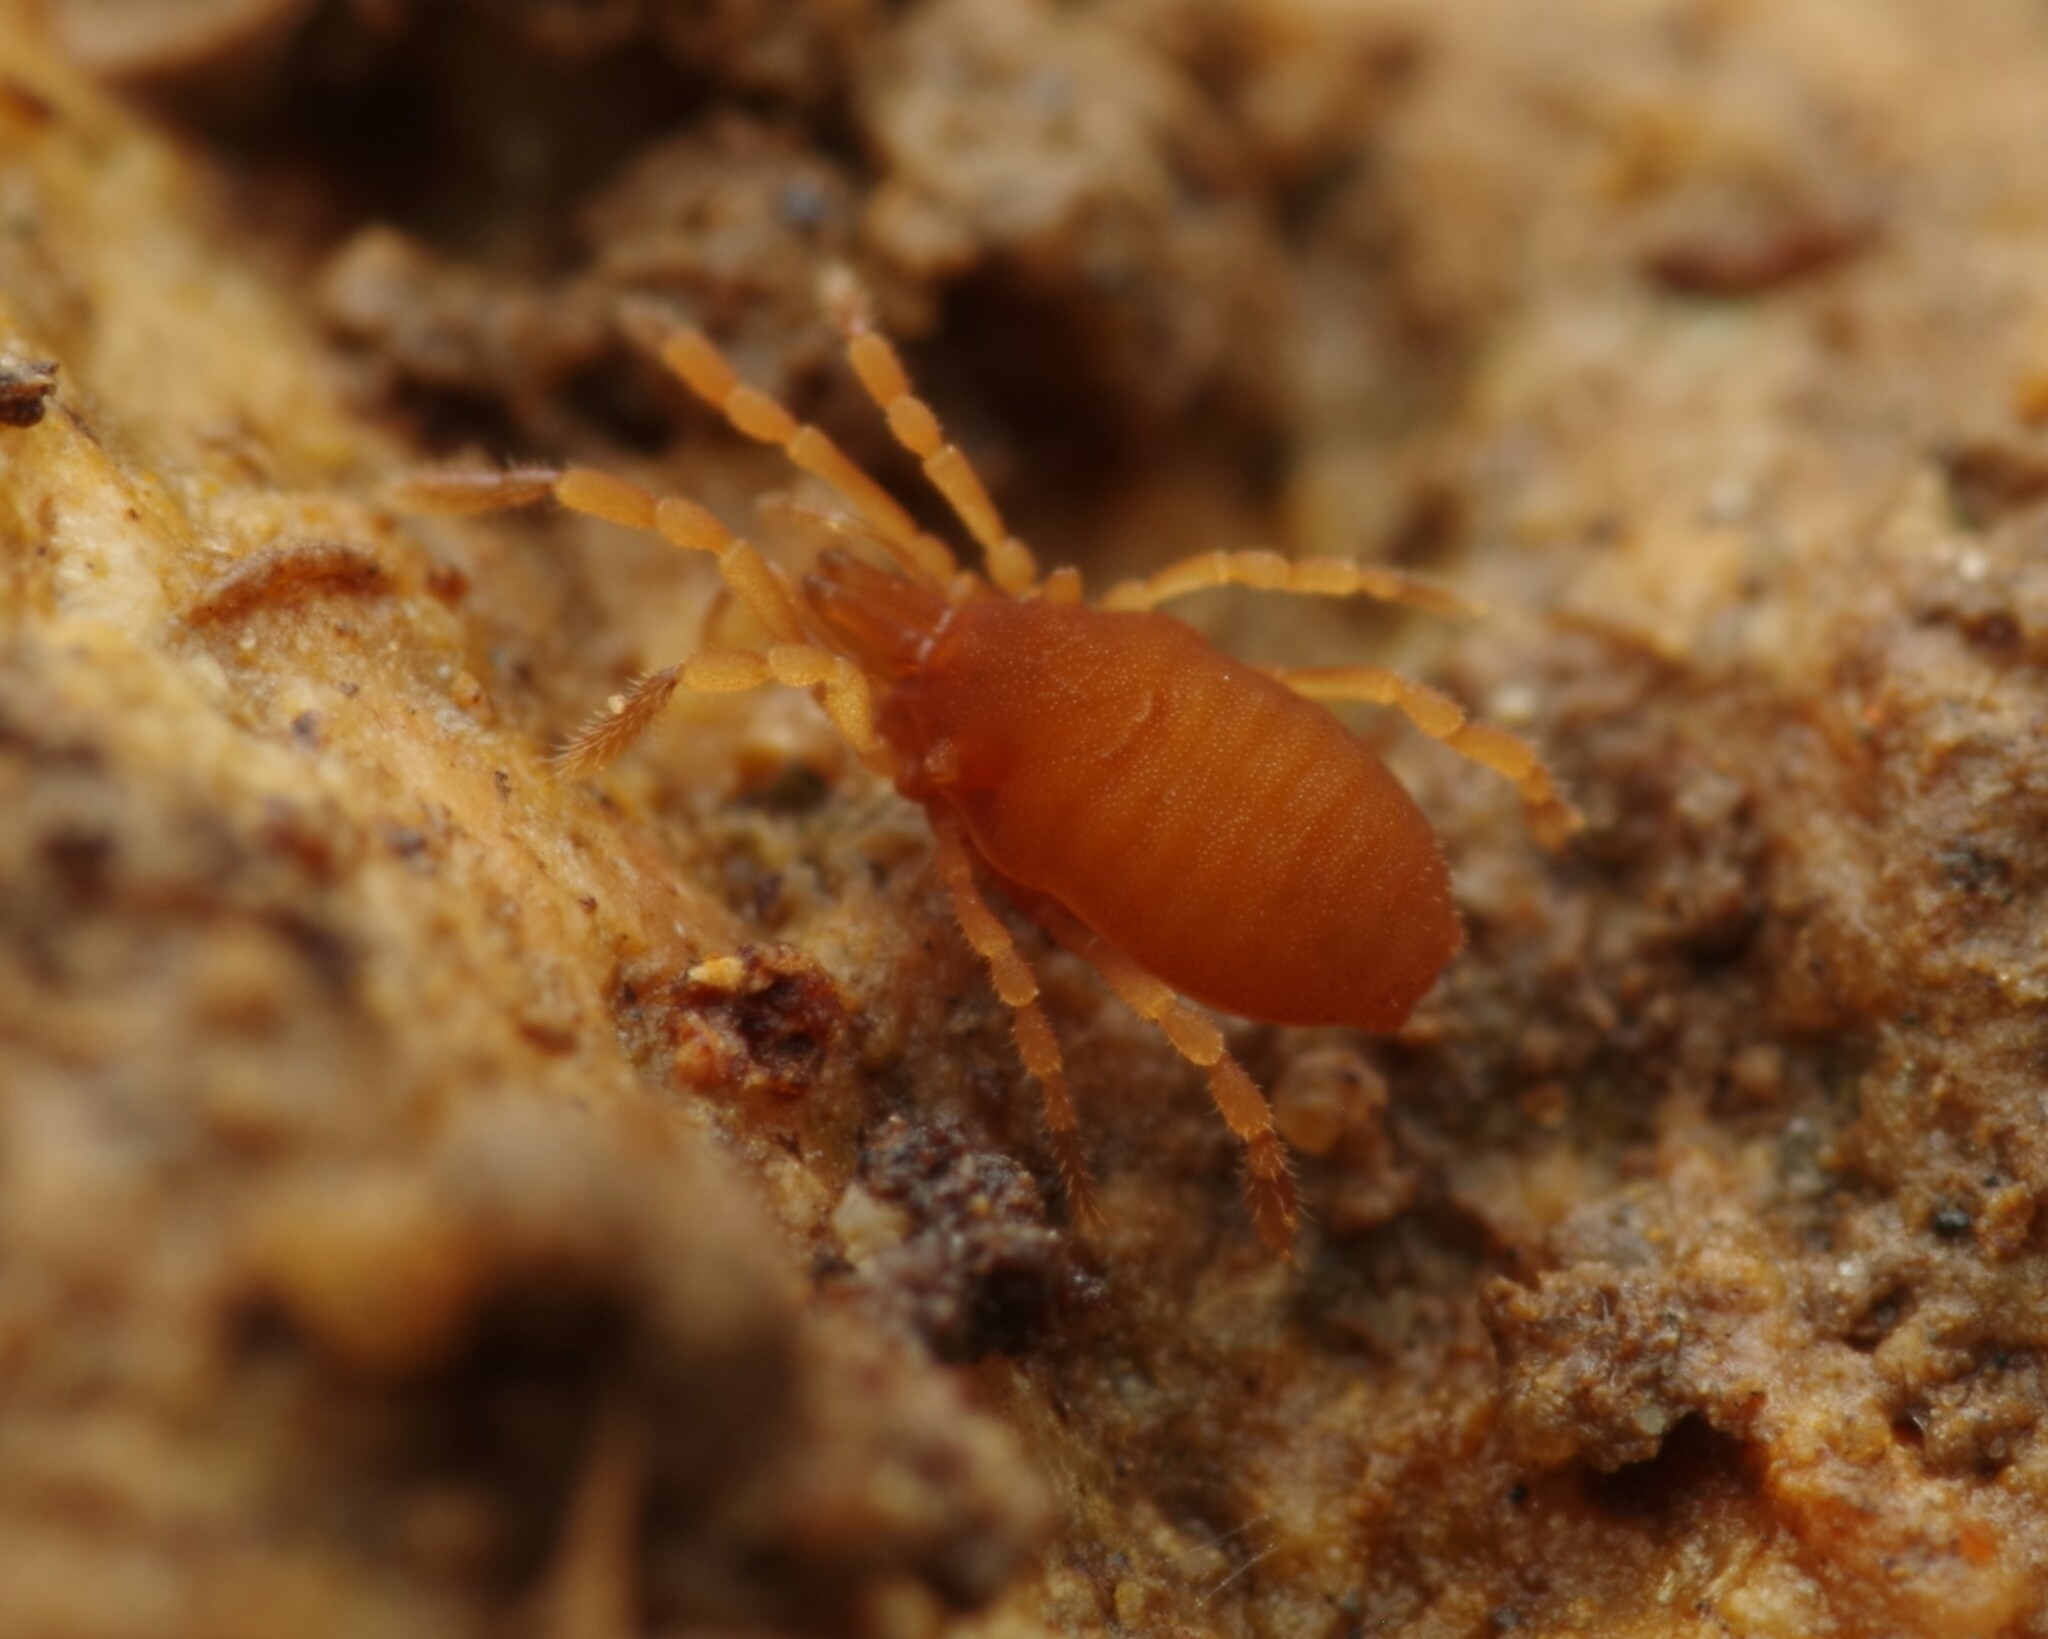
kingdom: Animalia
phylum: Arthropoda
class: Arachnida
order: Opiliones
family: Sironidae
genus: Siro
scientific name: Siro rubens
